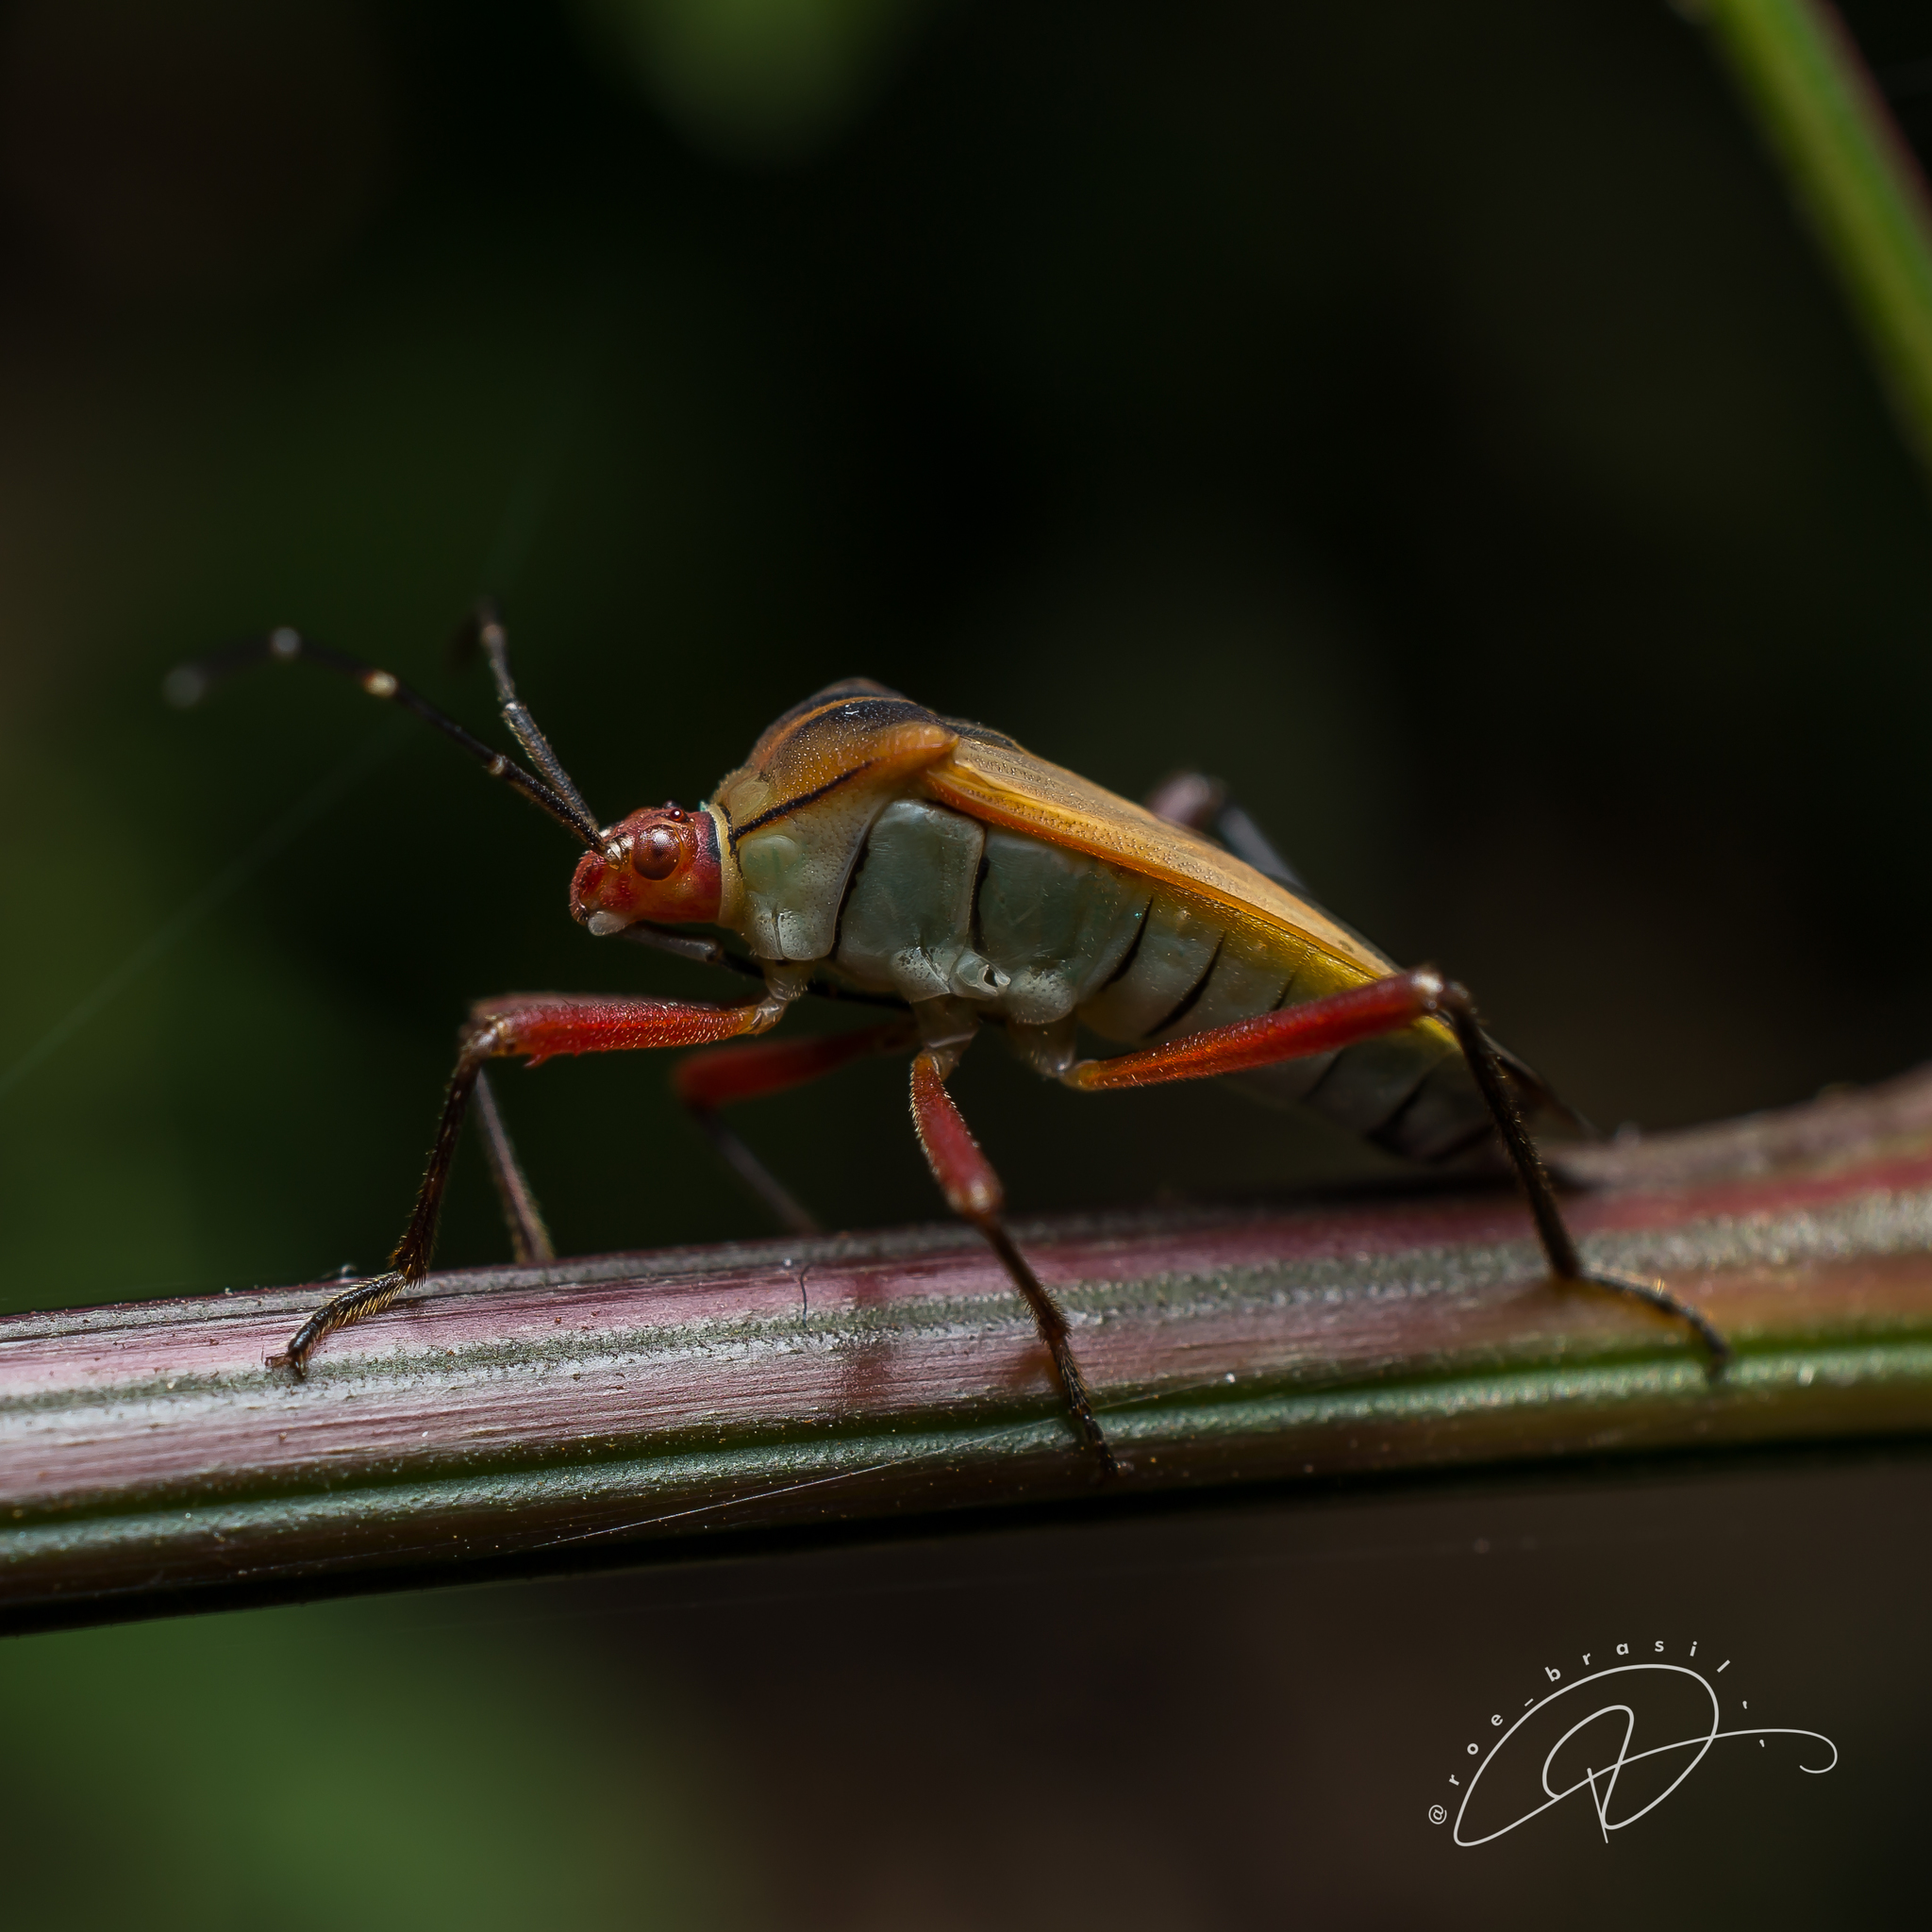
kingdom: Animalia
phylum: Arthropoda
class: Insecta
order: Hemiptera
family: Coreidae
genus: Hypselonotus
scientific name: Hypselonotus interruptus
